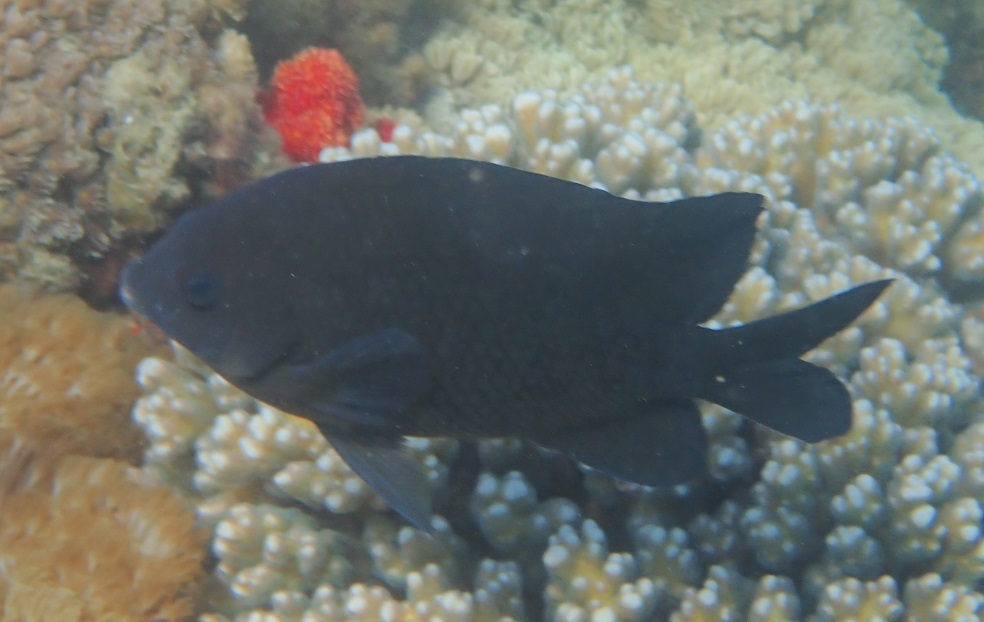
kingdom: Animalia
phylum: Chordata
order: Perciformes
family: Pomacentridae
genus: Parma
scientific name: Parma oligolepis
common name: Big-scale parma
